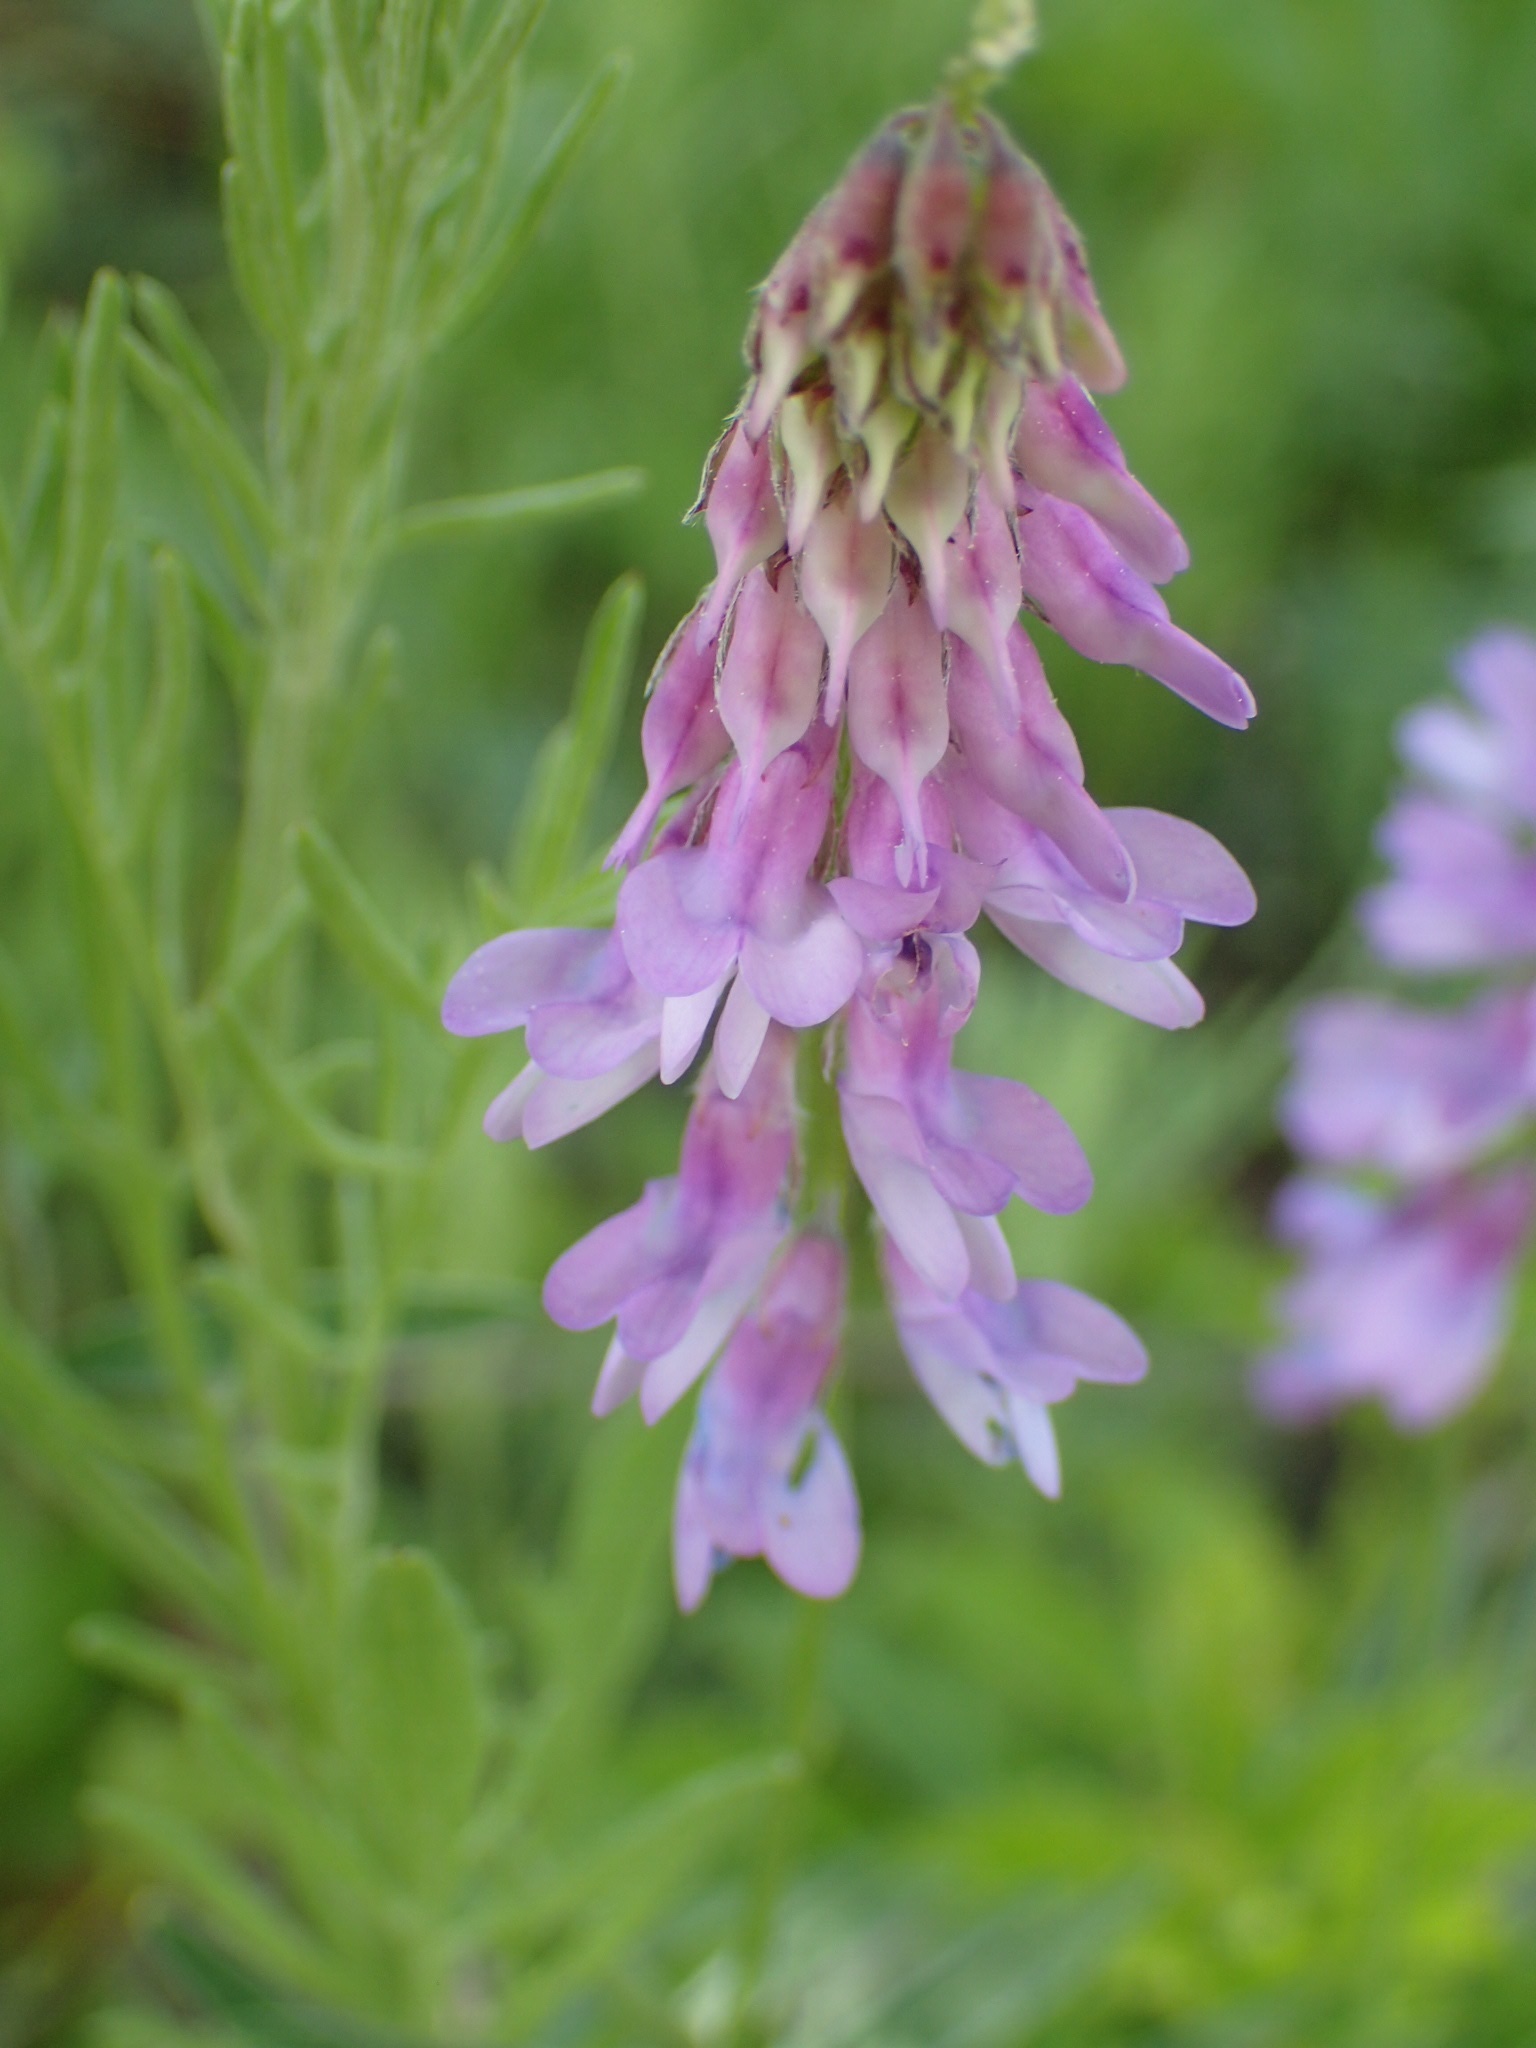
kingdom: Plantae
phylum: Tracheophyta
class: Magnoliopsida
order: Fabales
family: Fabaceae
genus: Vicia
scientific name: Vicia cracca
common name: Bird vetch
